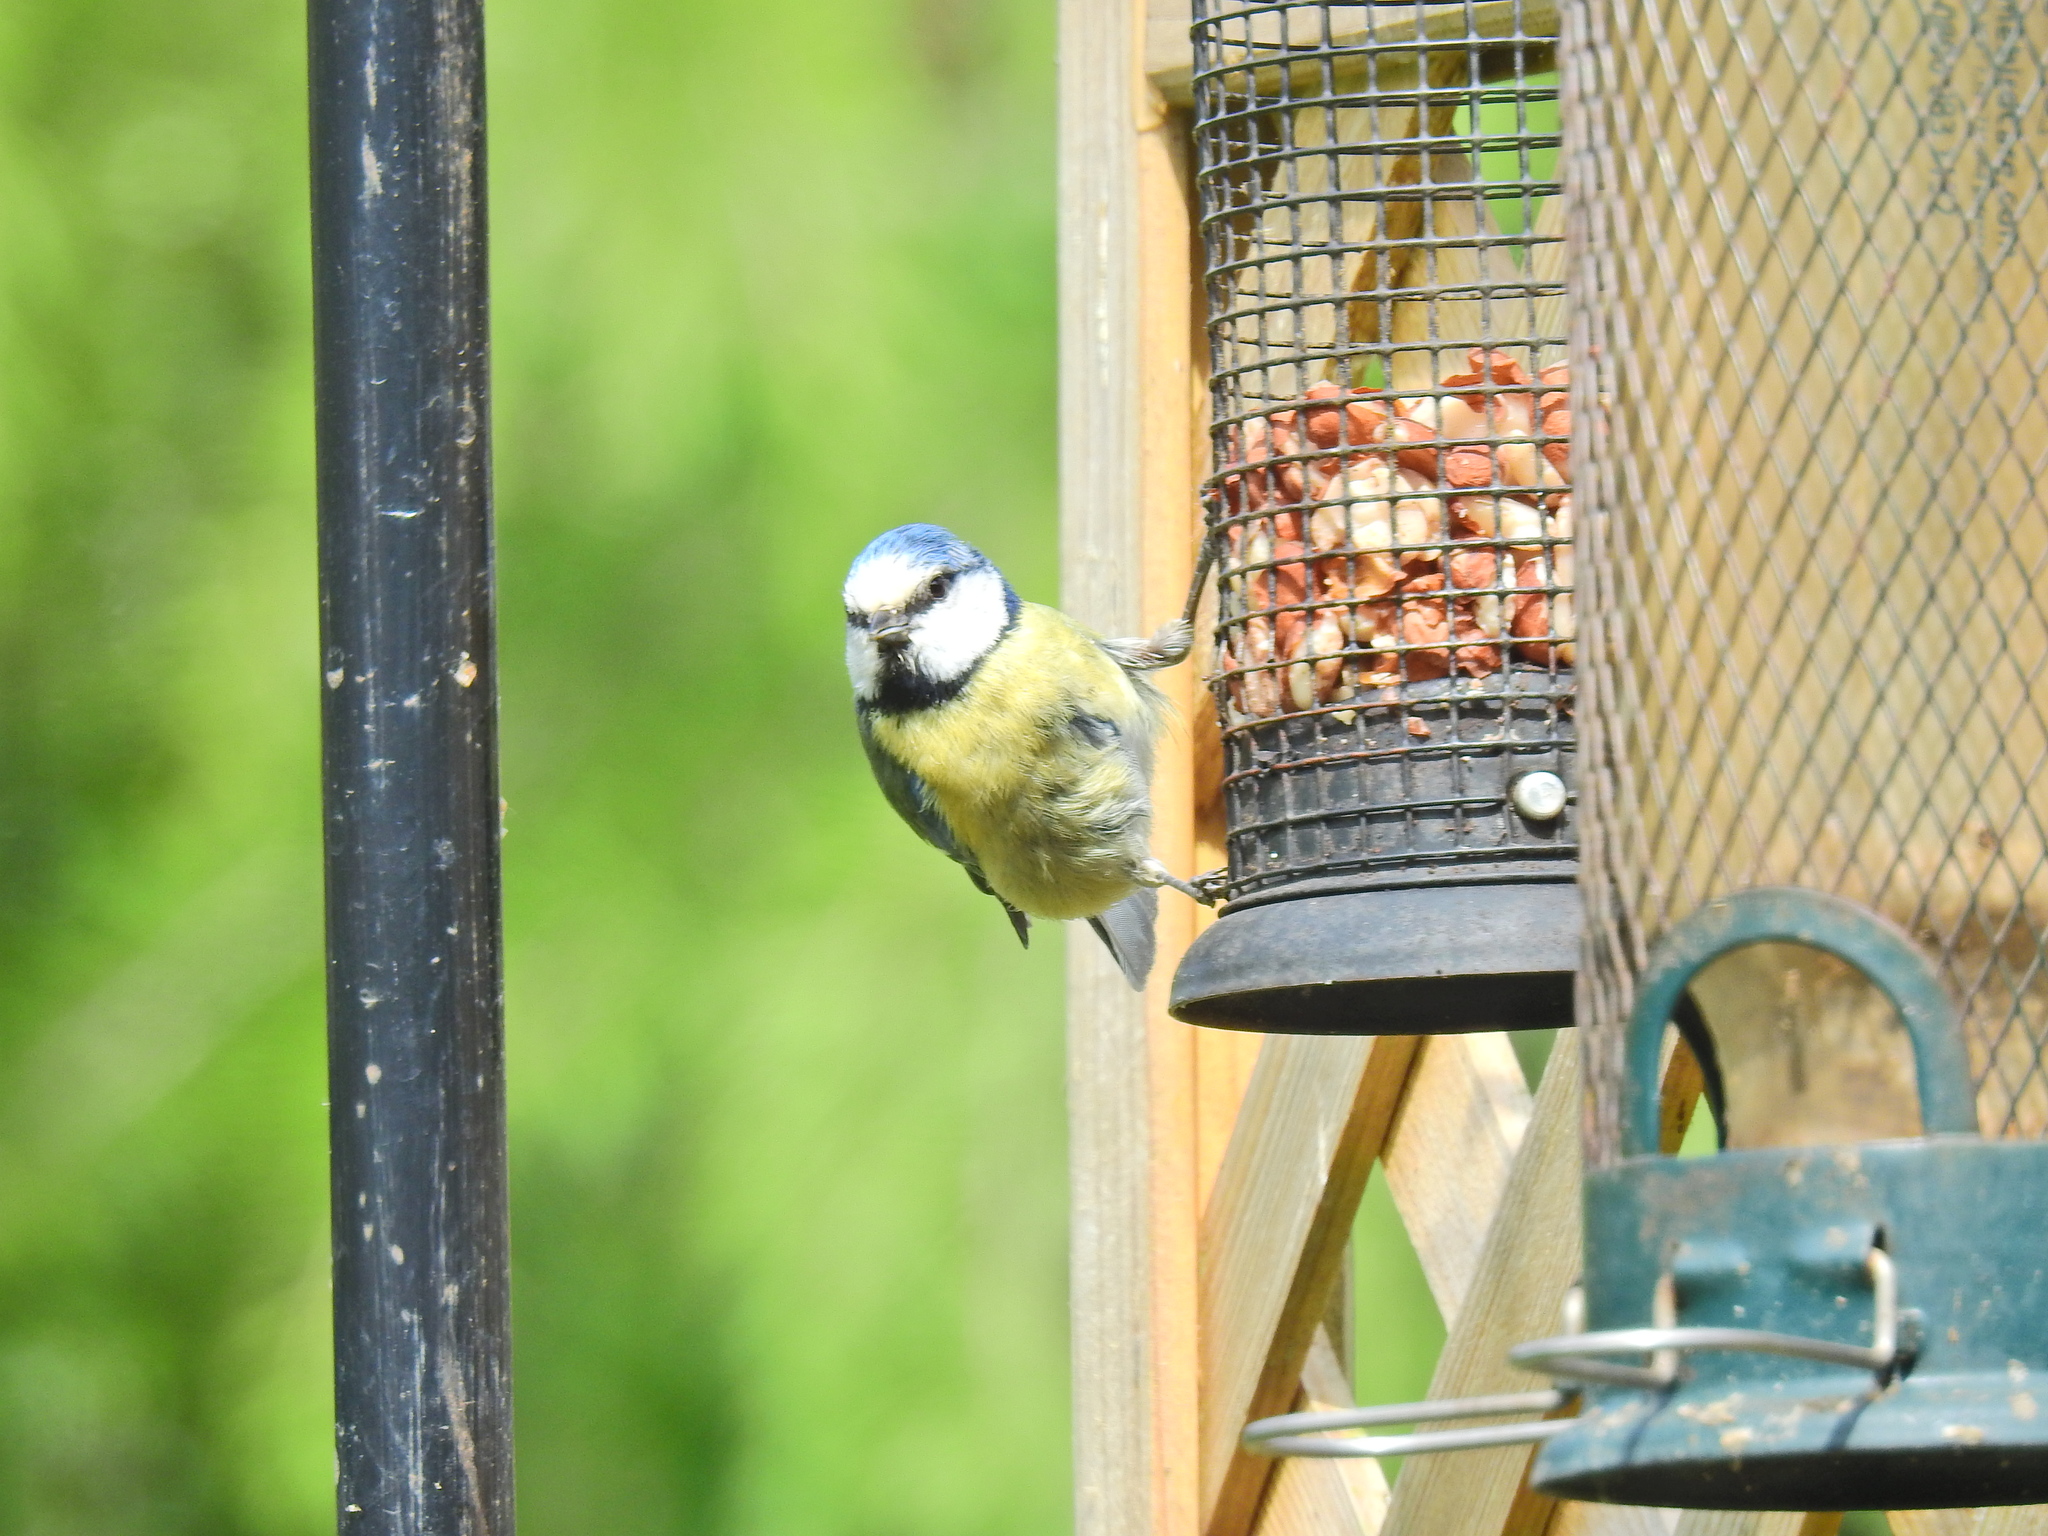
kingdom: Animalia
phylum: Chordata
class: Aves
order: Passeriformes
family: Paridae
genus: Cyanistes
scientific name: Cyanistes caeruleus
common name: Eurasian blue tit
